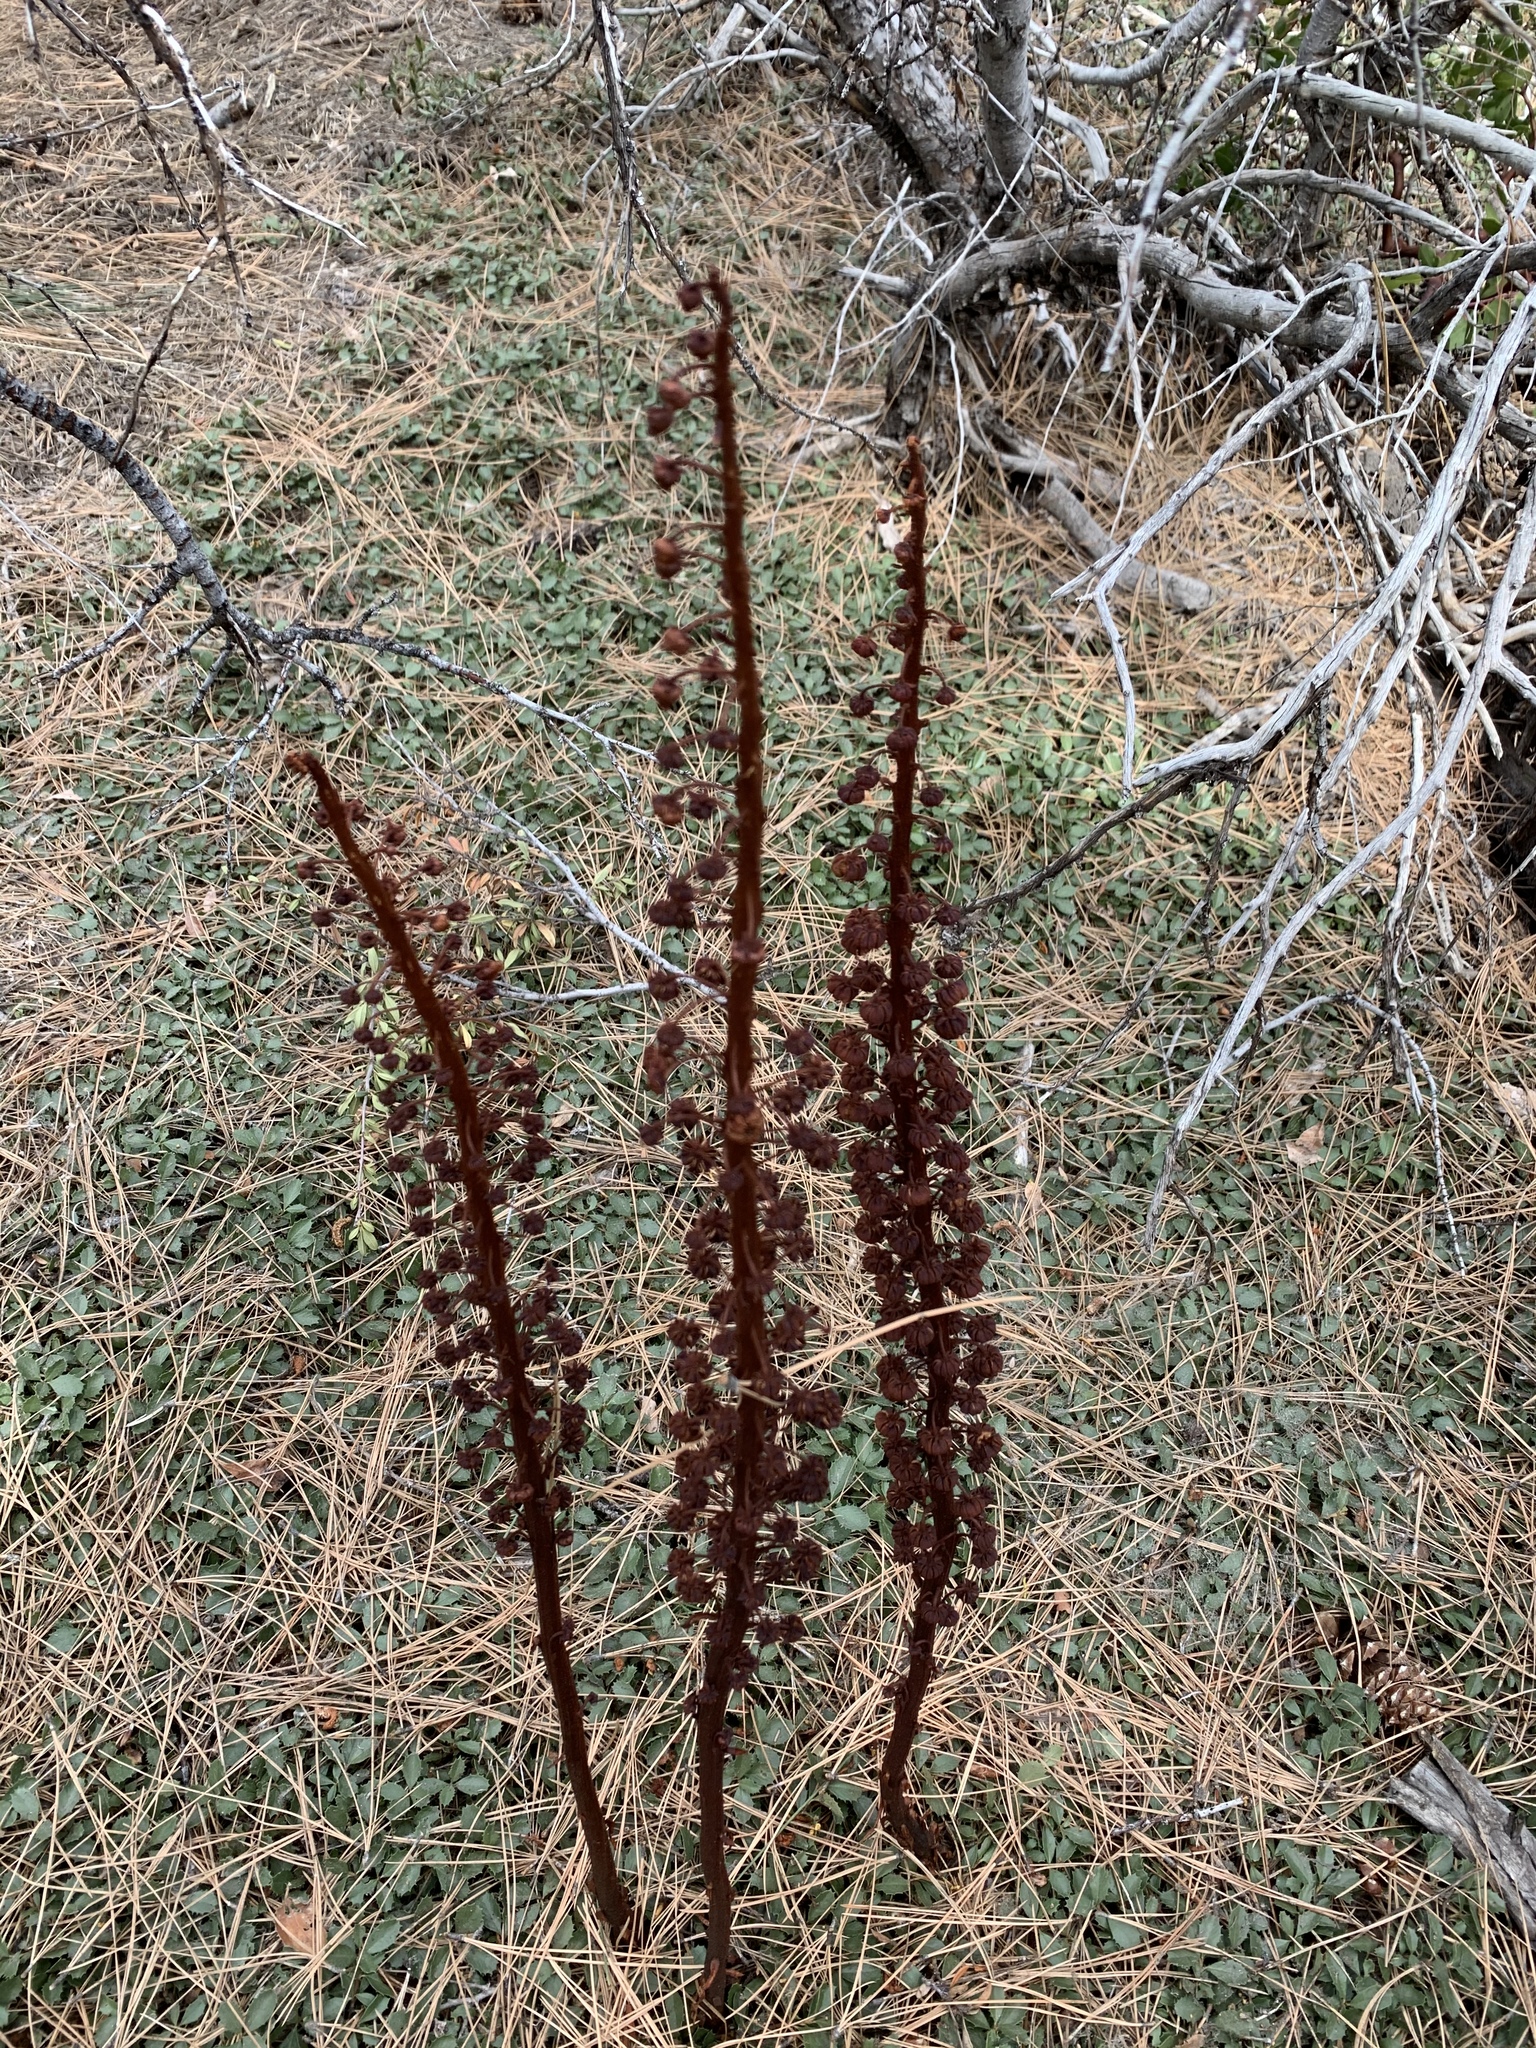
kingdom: Plantae
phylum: Tracheophyta
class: Magnoliopsida
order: Ericales
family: Ericaceae
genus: Pterospora
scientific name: Pterospora andromedea
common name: Giant bird's-nest
